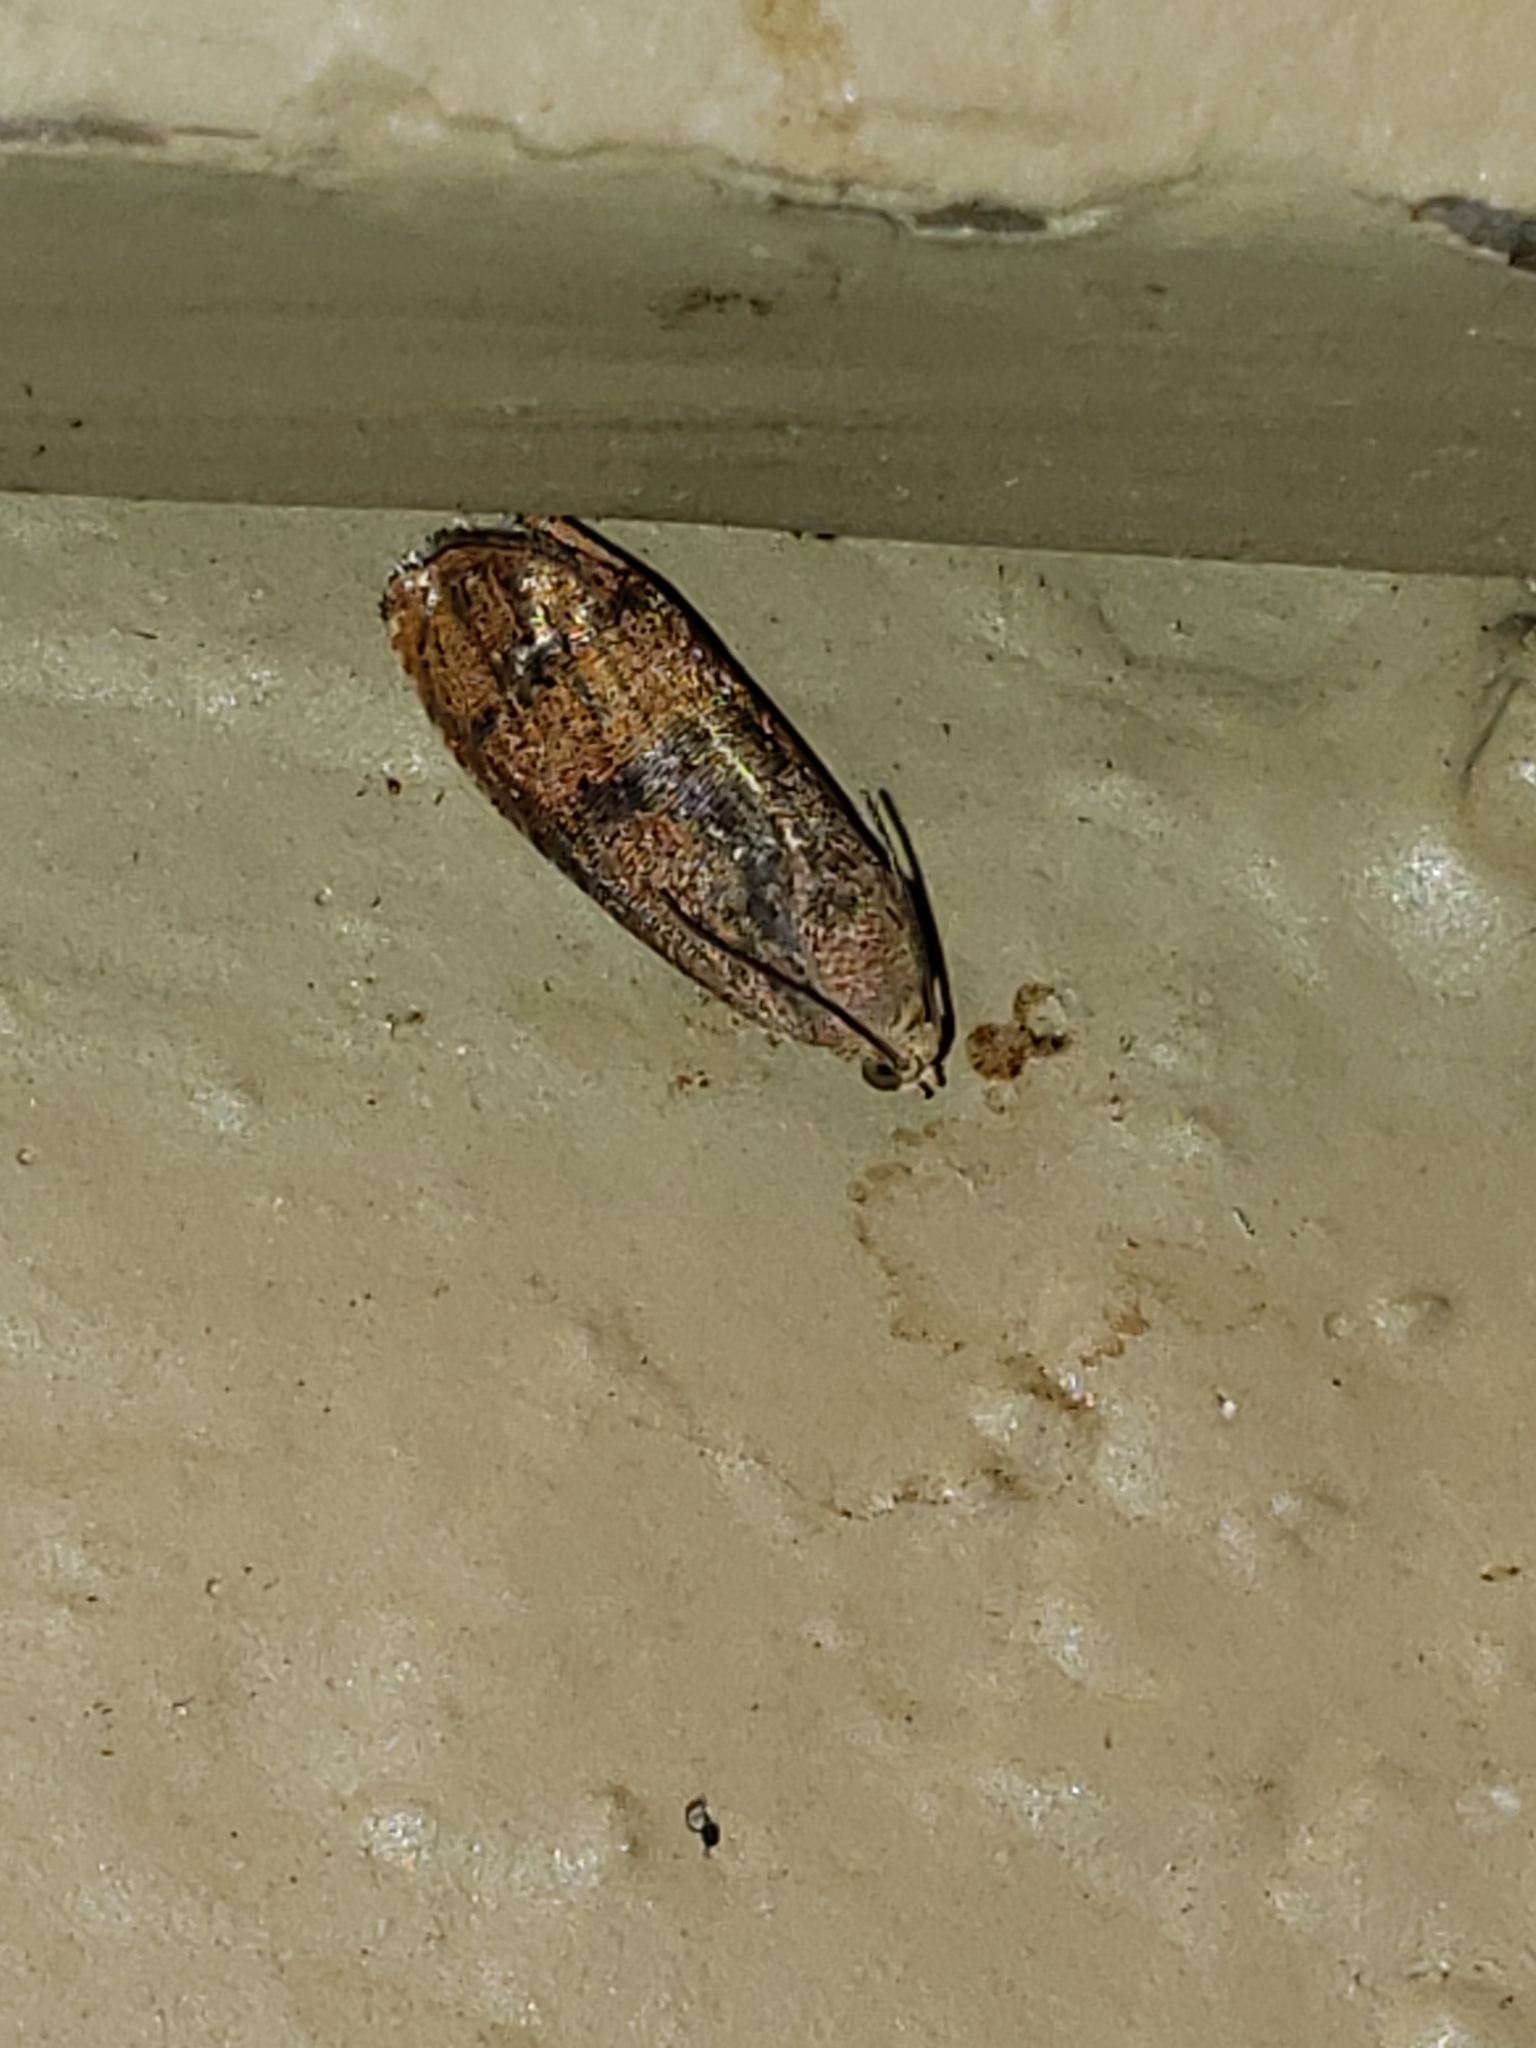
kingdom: Animalia
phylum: Arthropoda
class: Insecta
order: Lepidoptera
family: Tortricidae
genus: Cydia
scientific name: Cydia latiferreana
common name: Filbertworm moth
